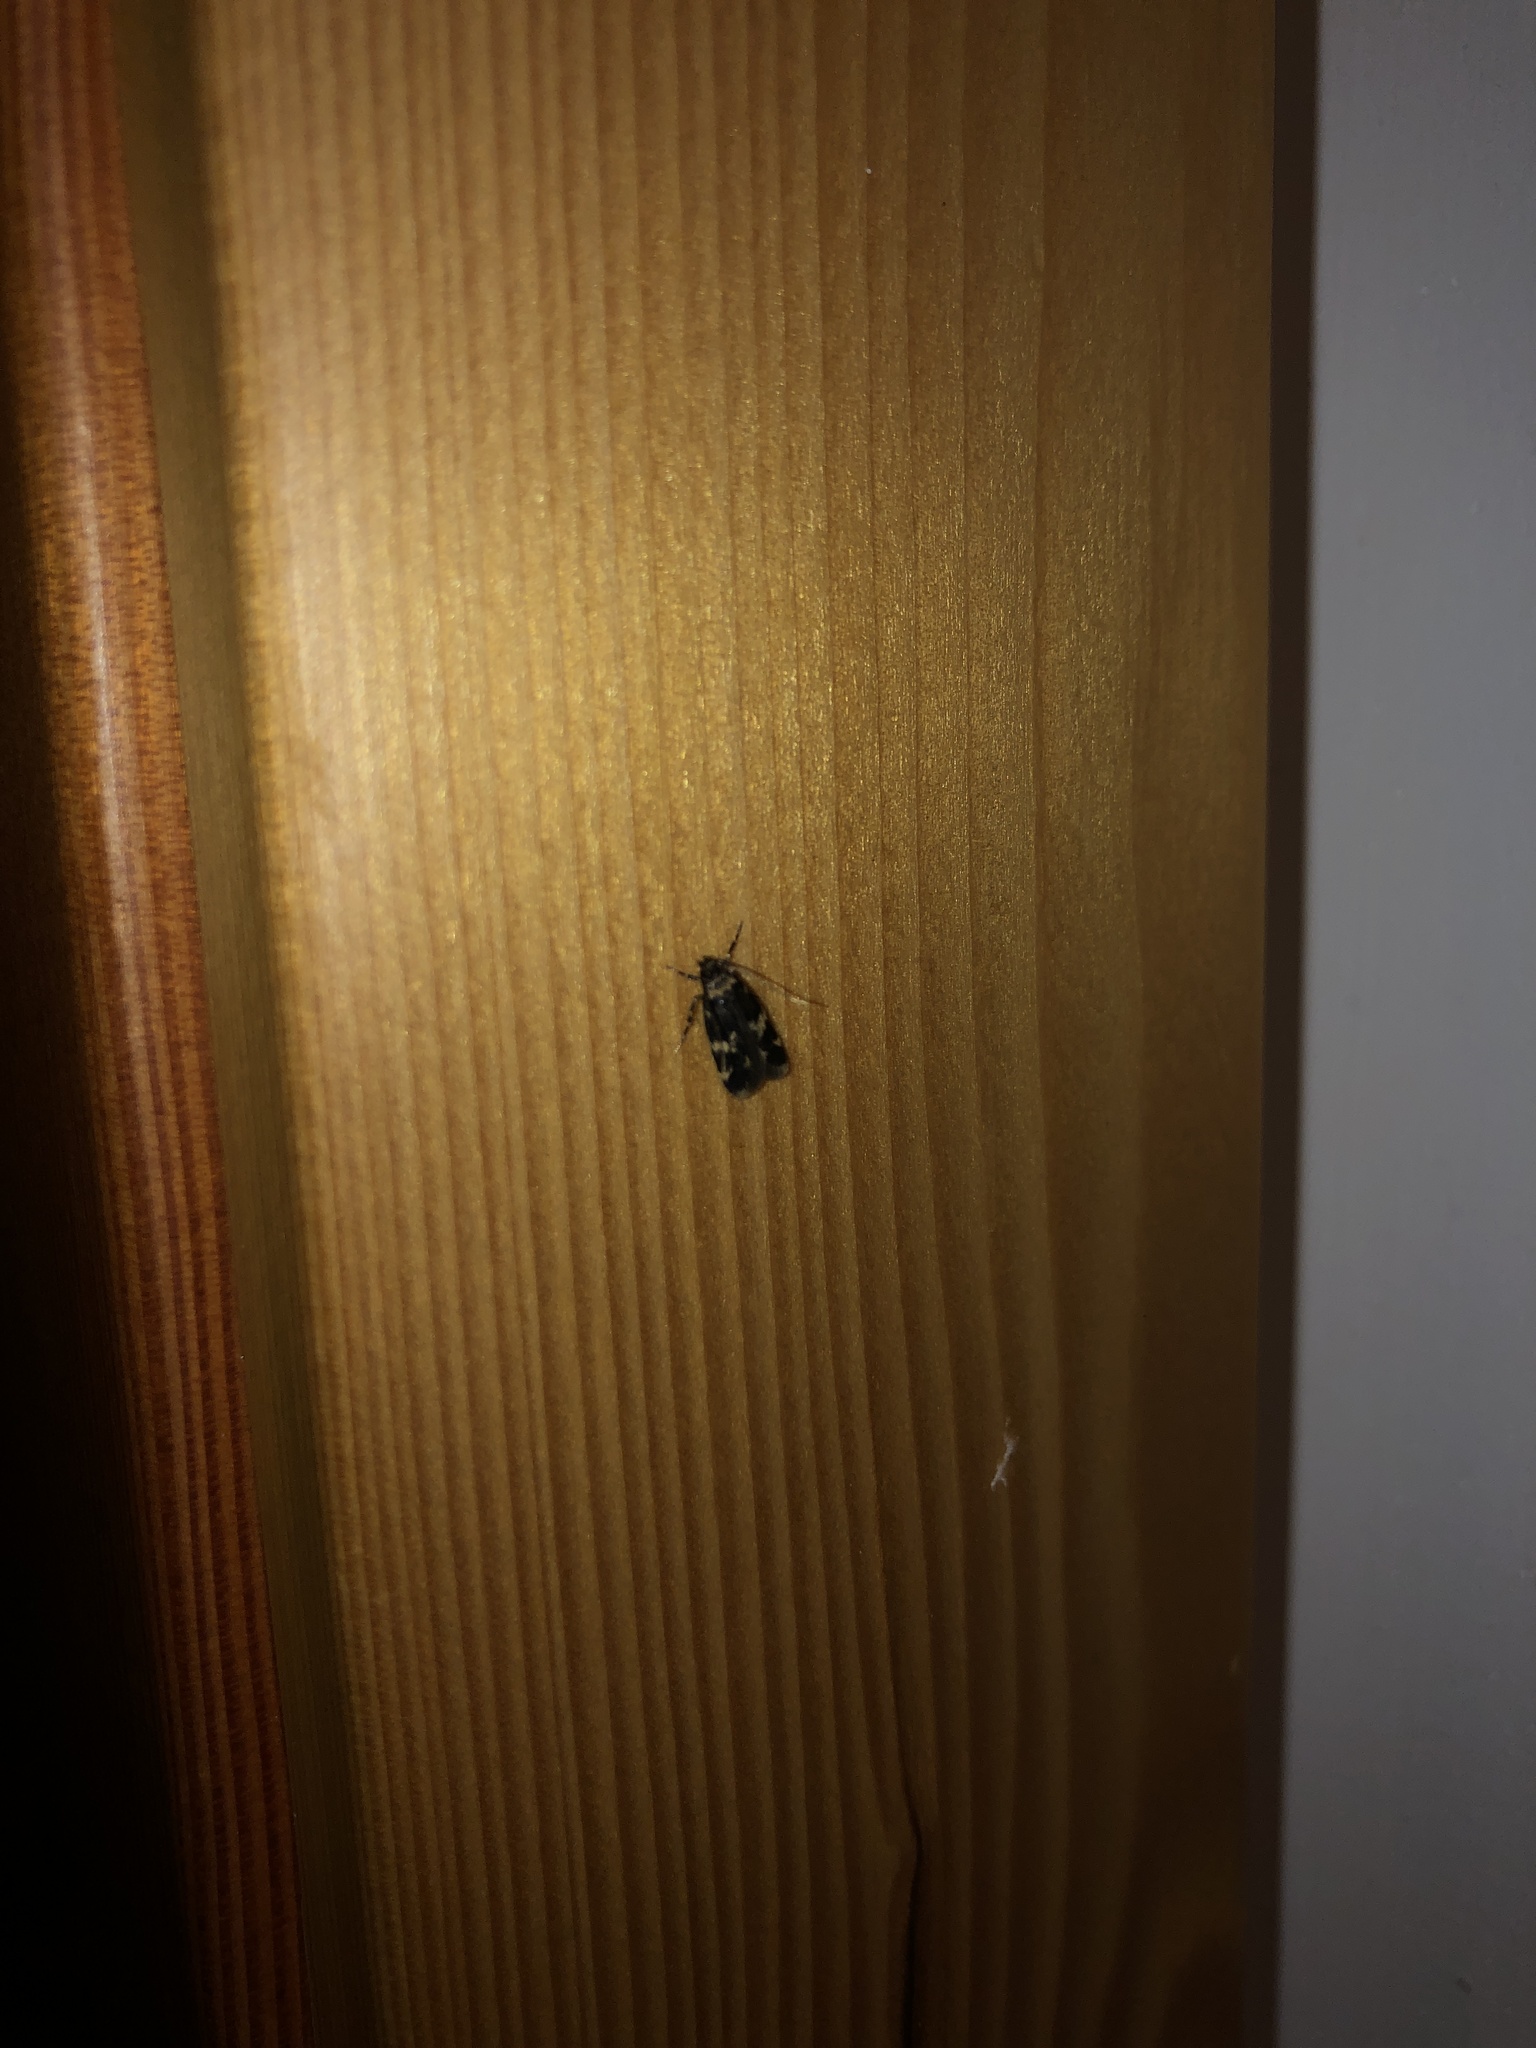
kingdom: Animalia
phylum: Arthropoda
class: Insecta
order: Lepidoptera
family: Autostichidae
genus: Oegoconia
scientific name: Oegoconia quadripuncta
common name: Four-spotted obscure
